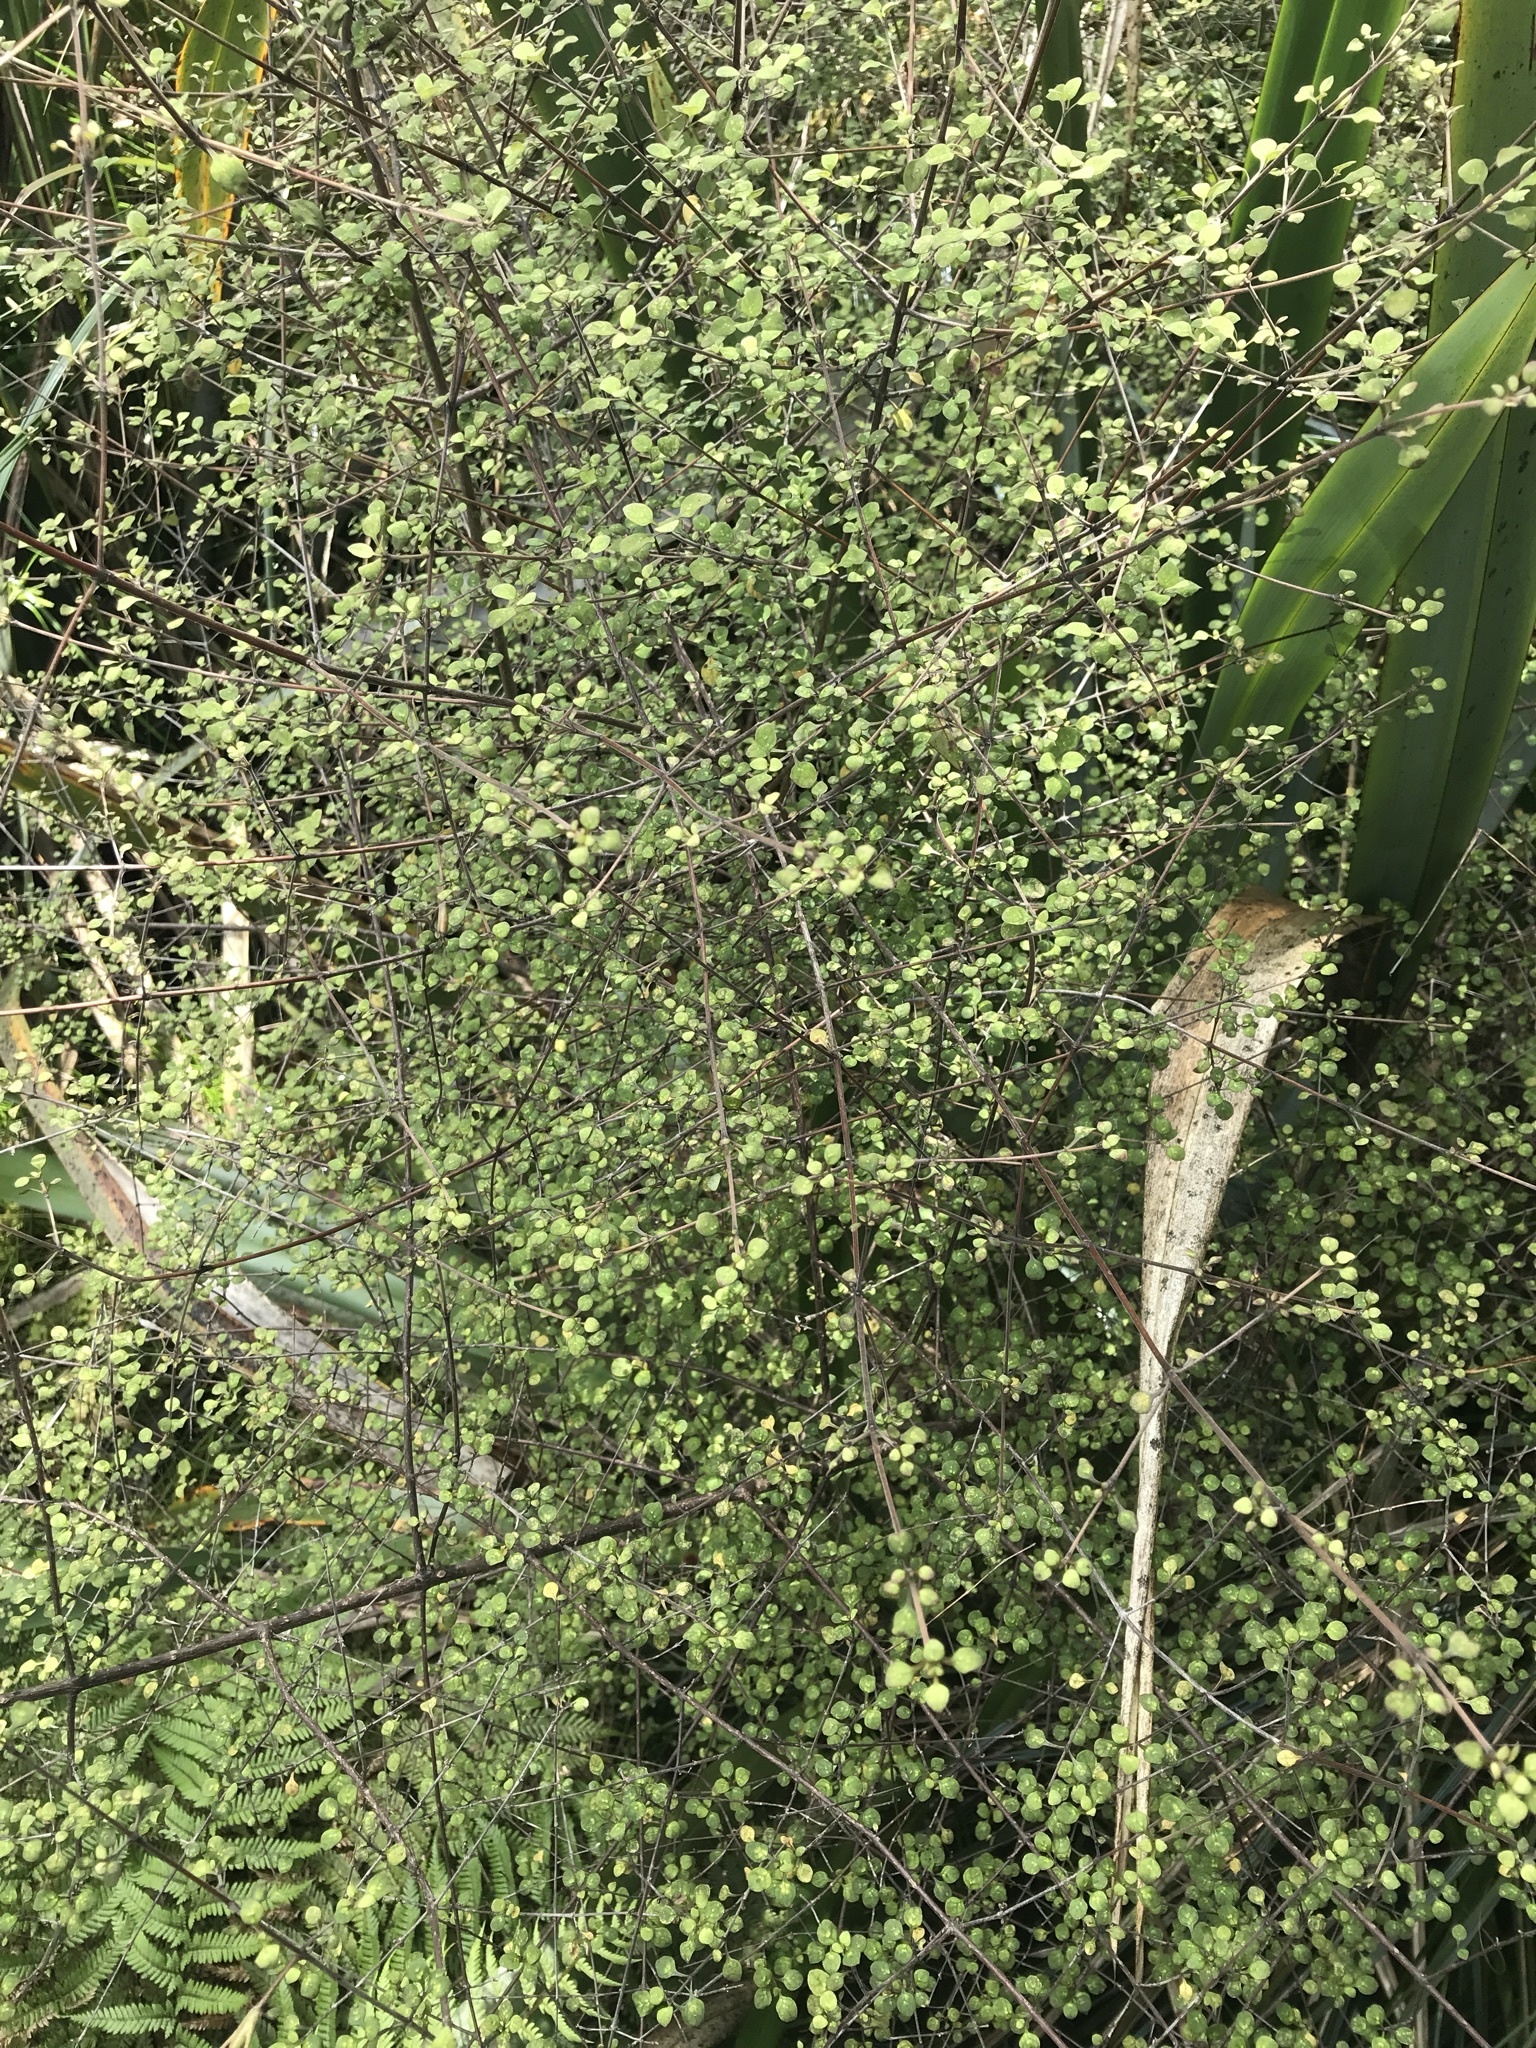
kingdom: Plantae
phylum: Tracheophyta
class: Magnoliopsida
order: Gentianales
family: Rubiaceae
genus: Coprosma
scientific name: Coprosma tenuicaulis
